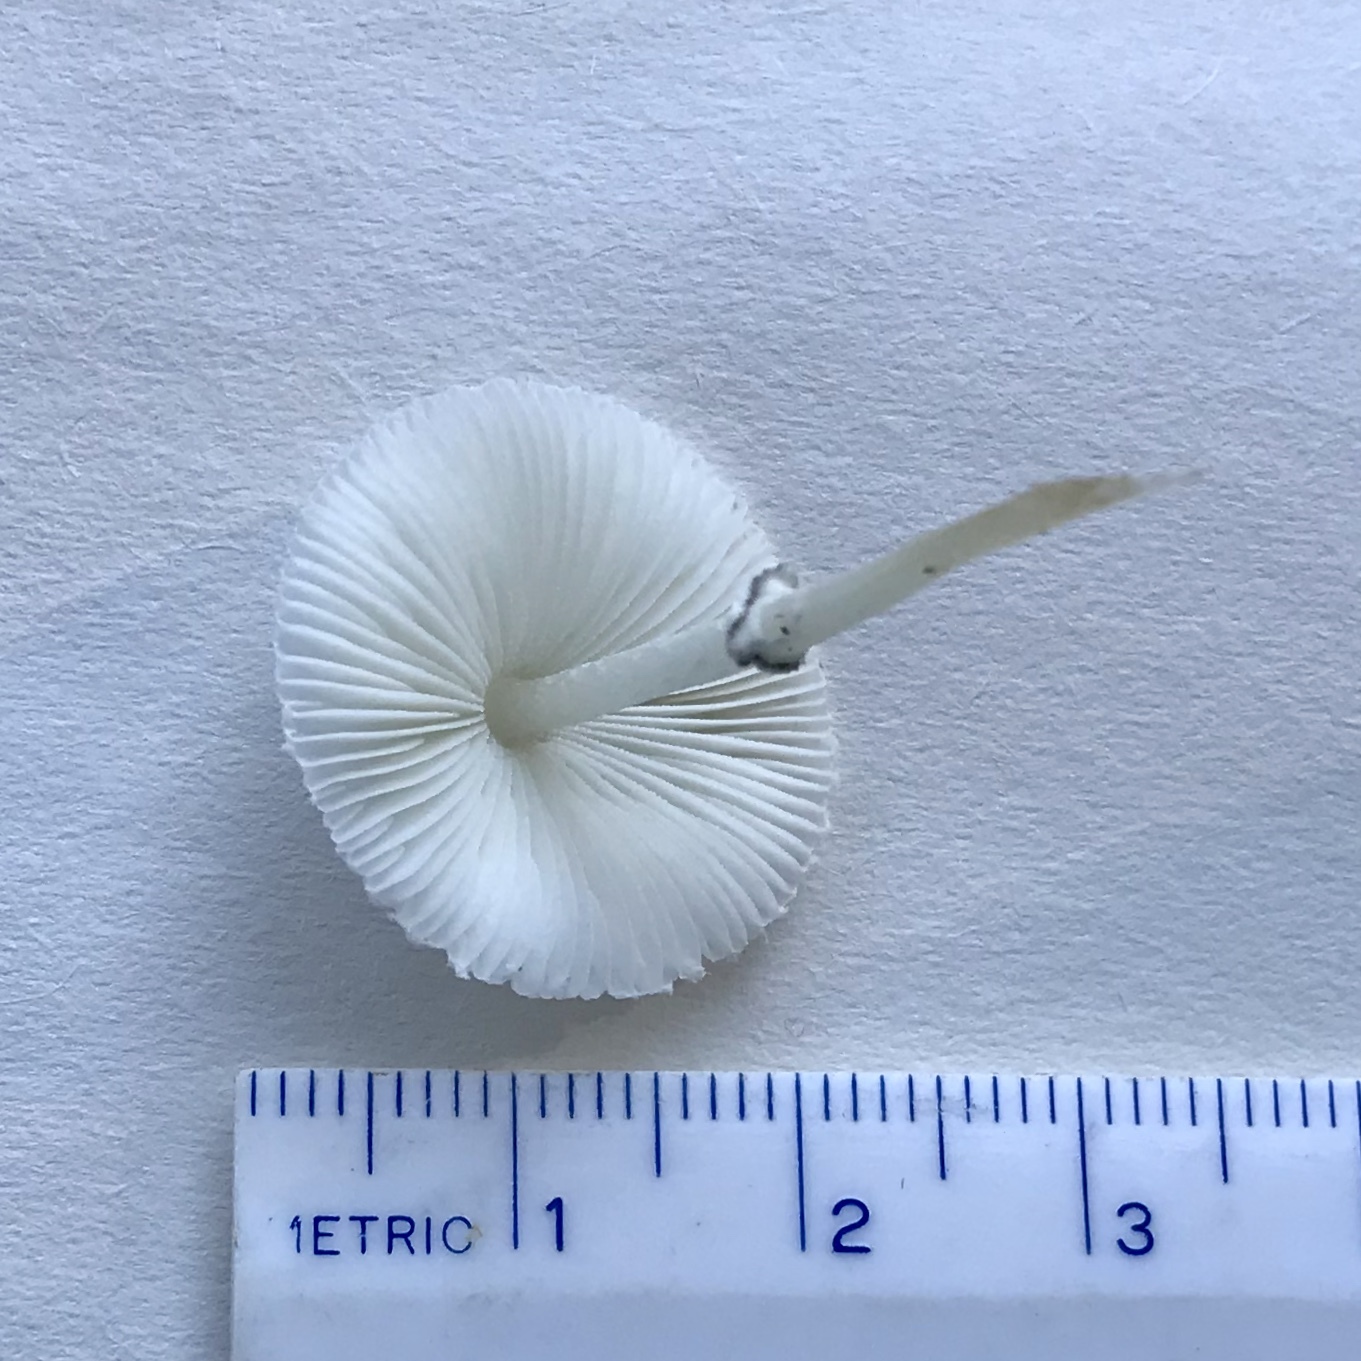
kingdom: Fungi
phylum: Basidiomycota
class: Agaricomycetes
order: Agaricales
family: Agaricaceae
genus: Leucocoprinus
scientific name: Leucocoprinus brebissonii
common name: Skullcap dapperling
